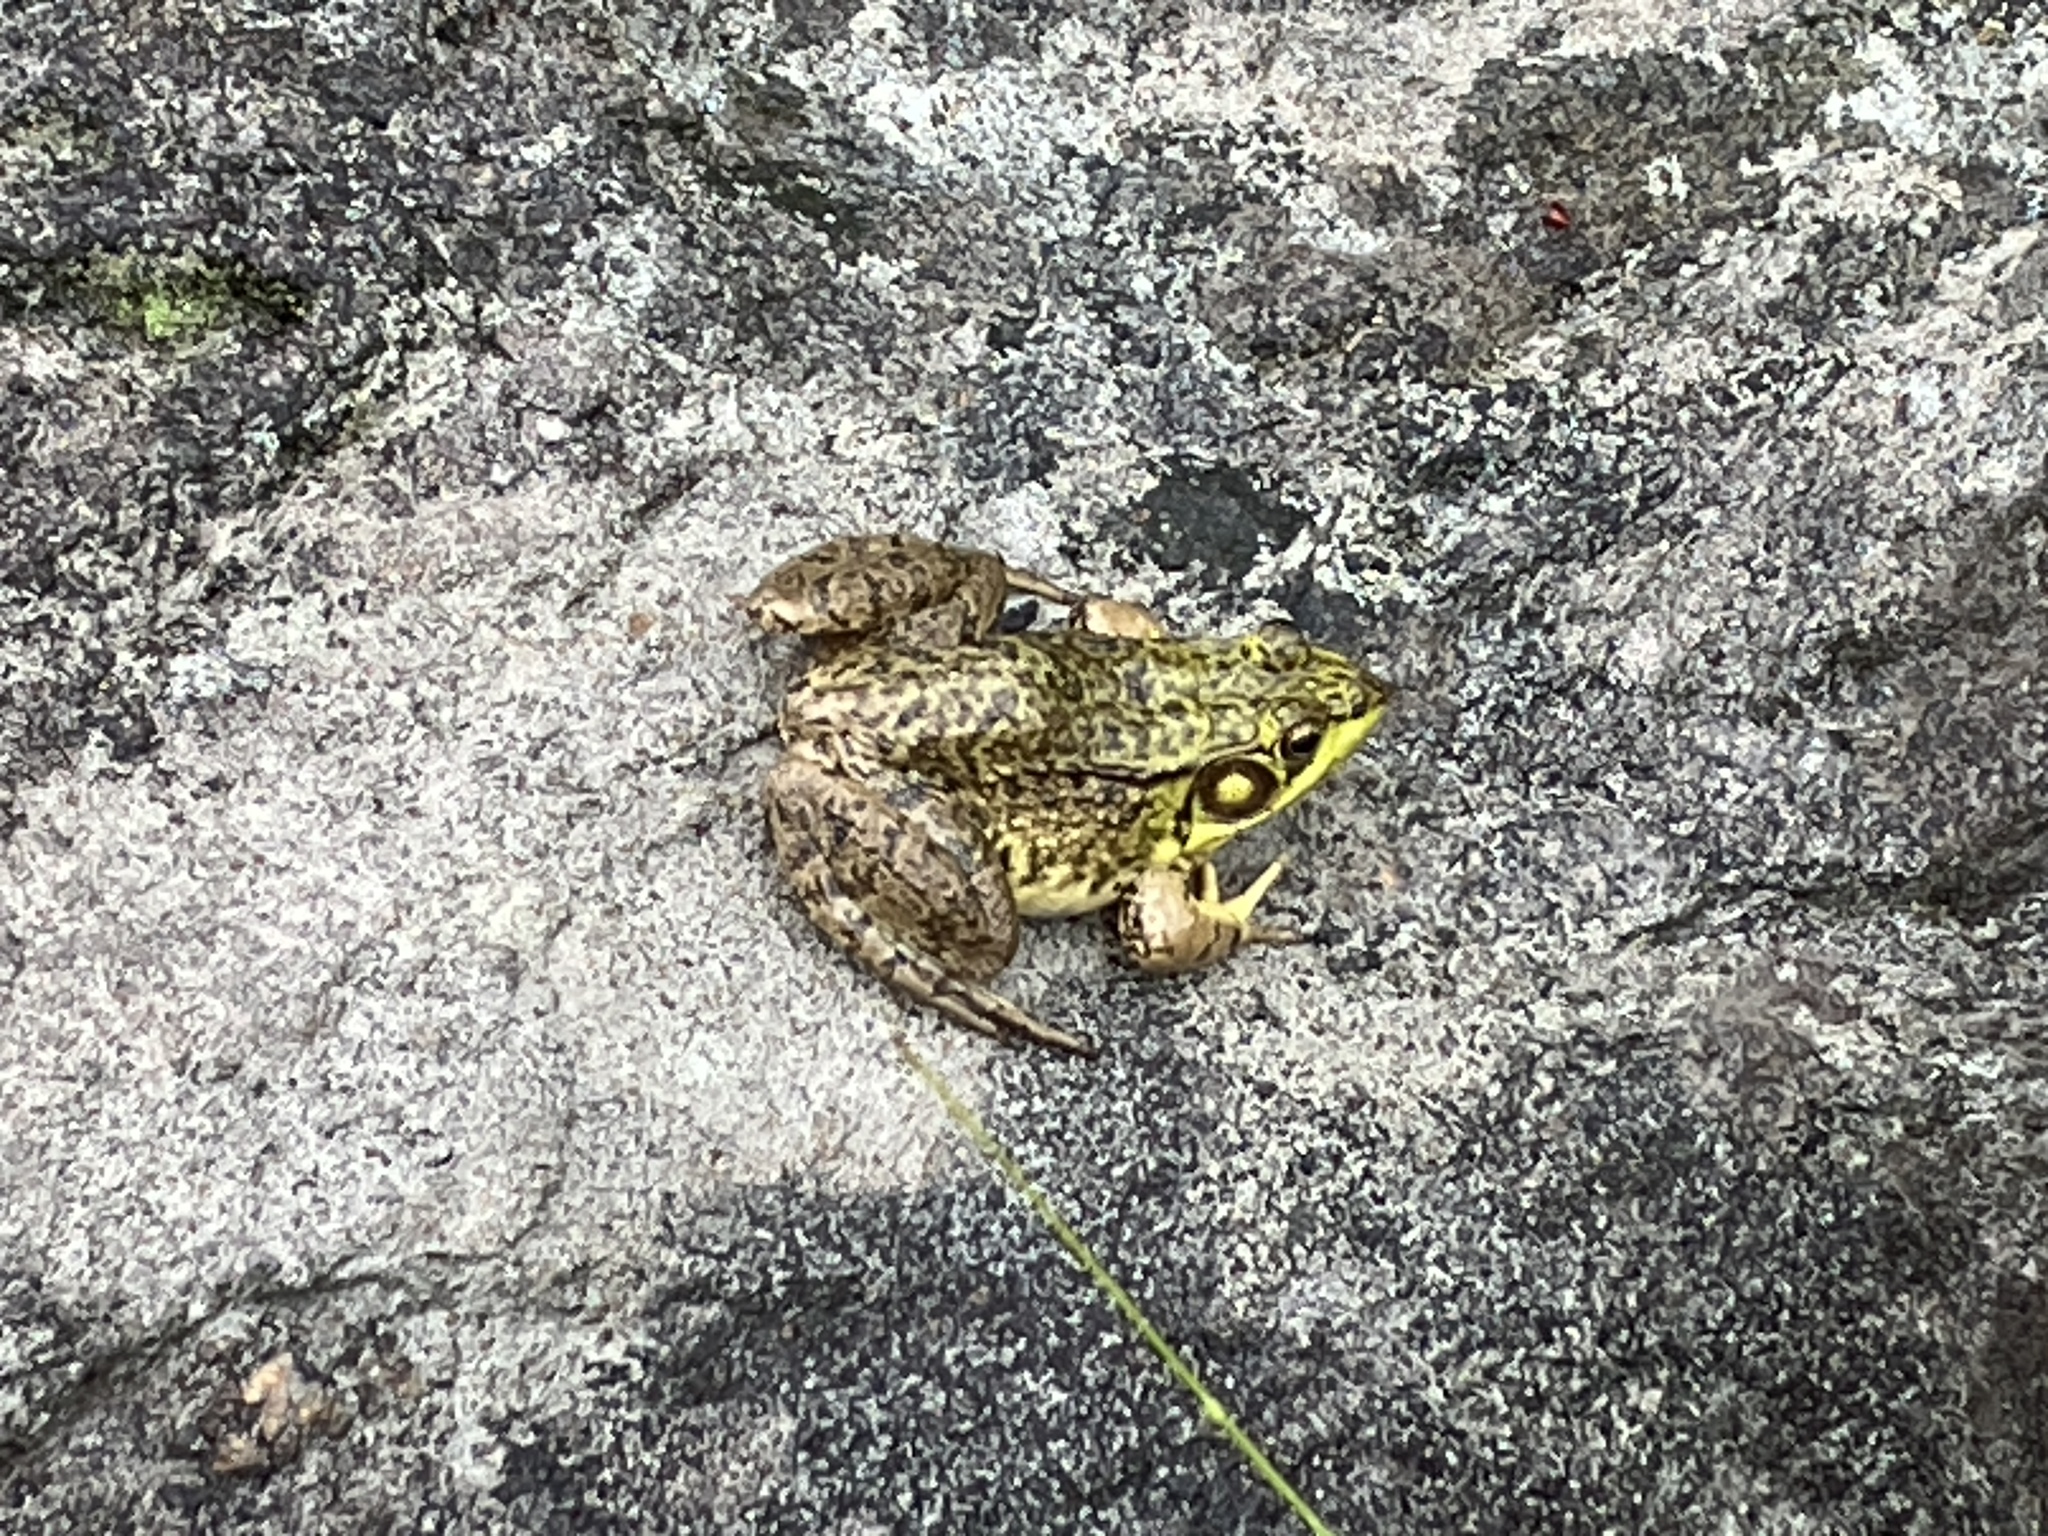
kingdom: Animalia
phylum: Chordata
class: Amphibia
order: Anura
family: Ranidae
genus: Lithobates
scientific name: Lithobates clamitans
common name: Green frog
